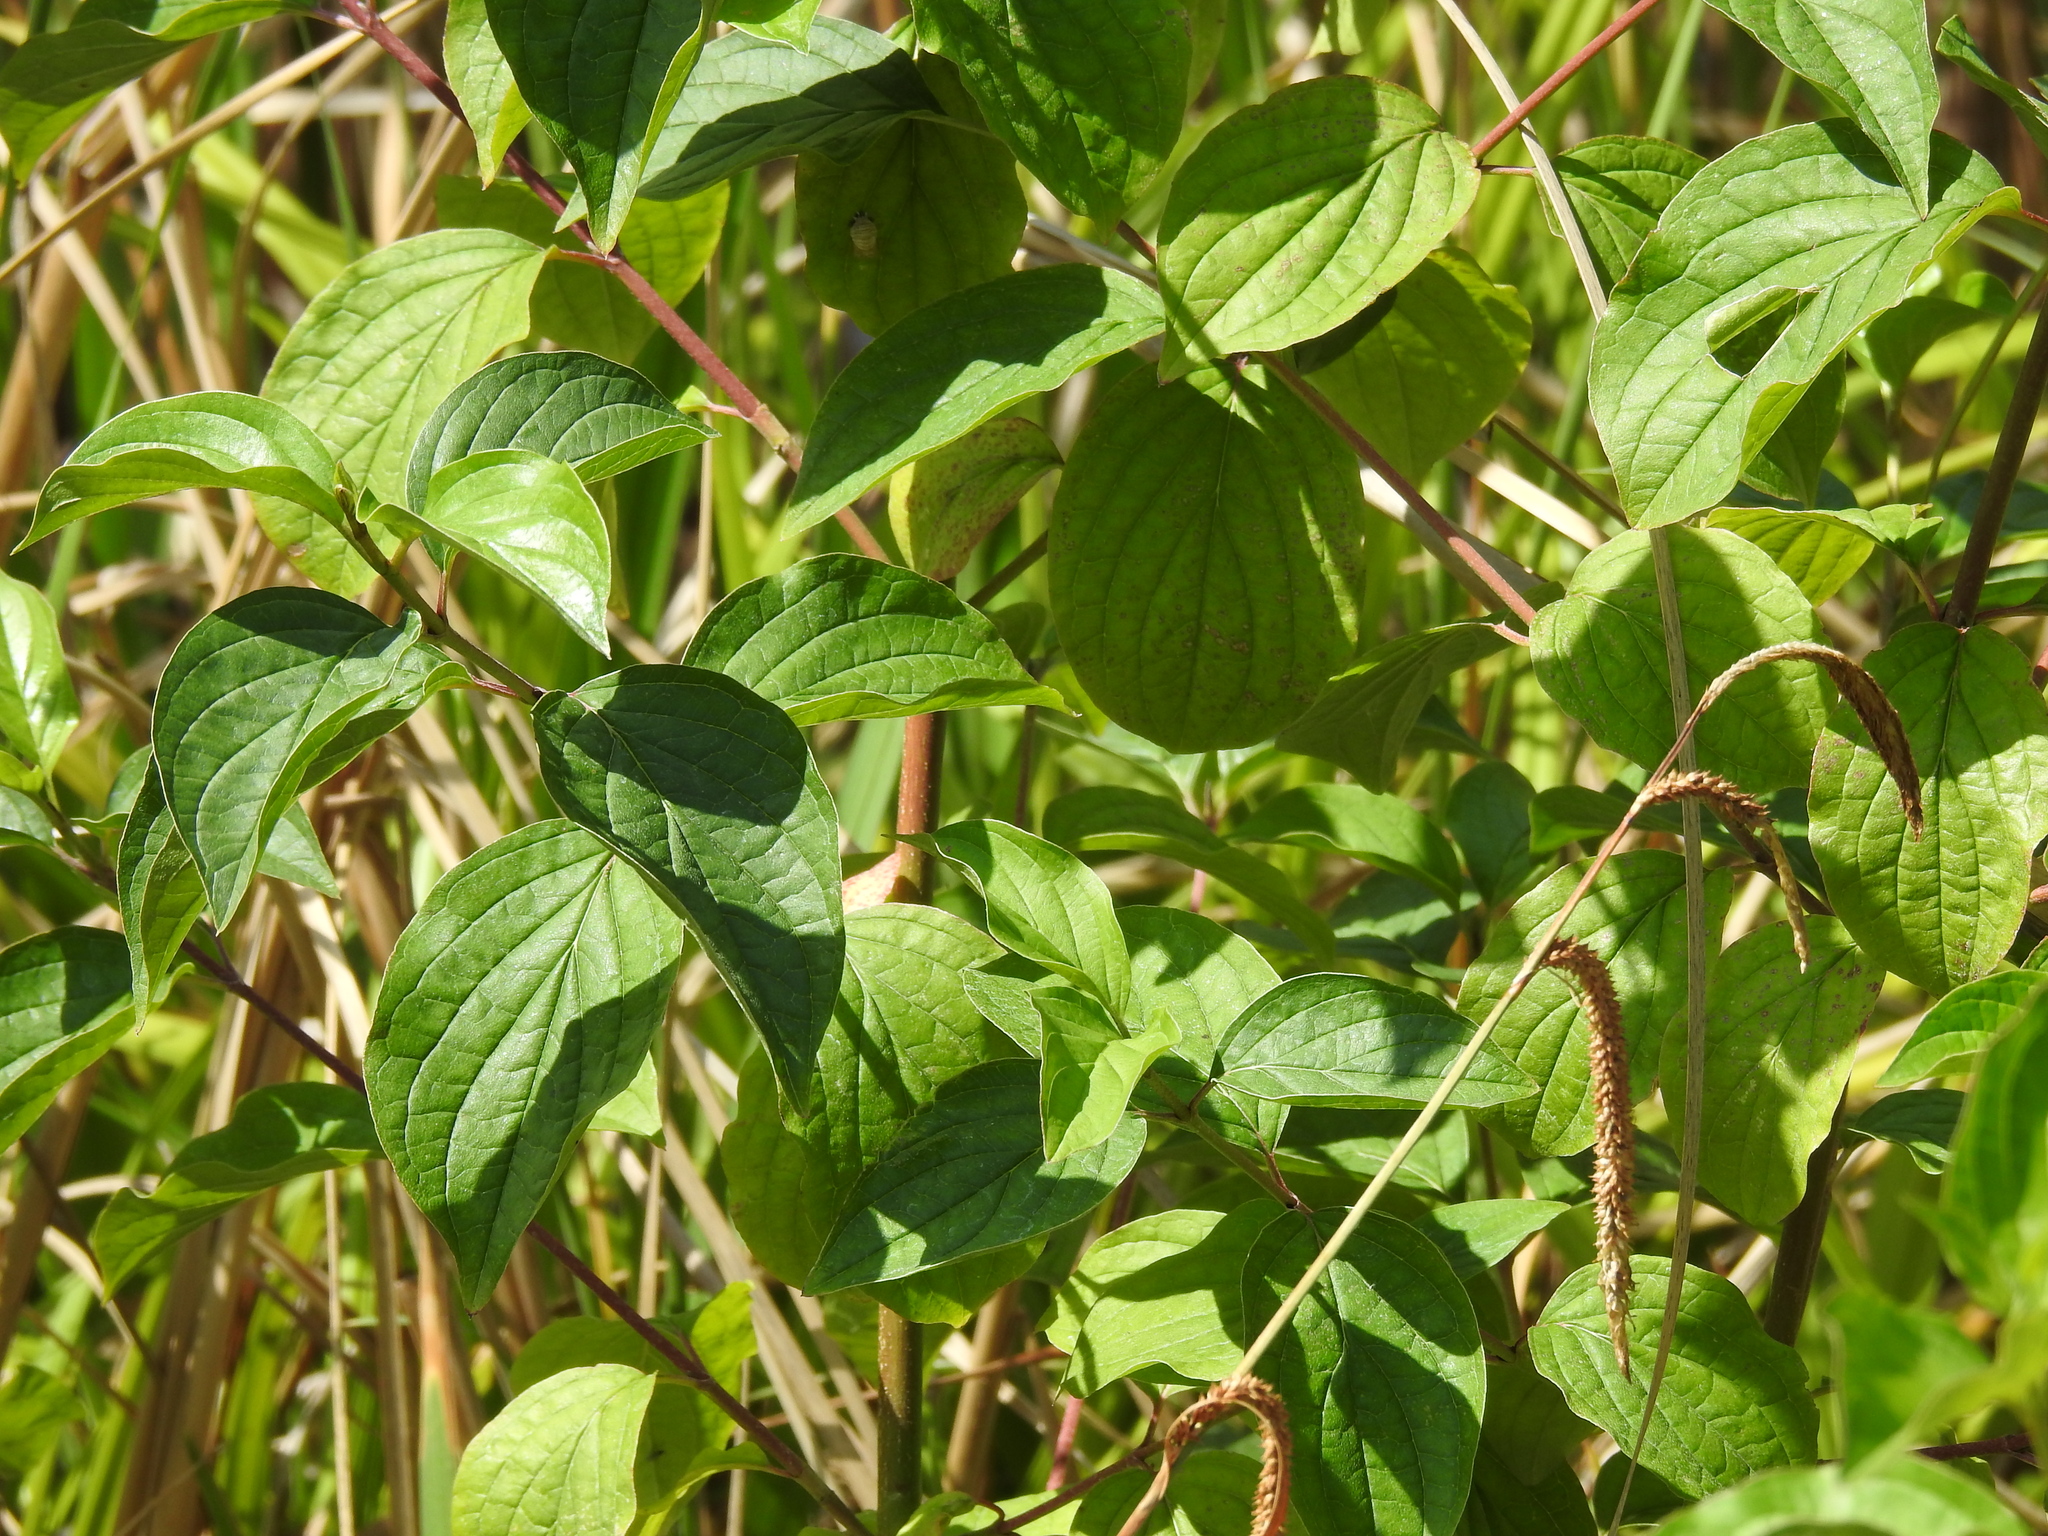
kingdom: Plantae
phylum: Tracheophyta
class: Magnoliopsida
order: Cornales
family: Cornaceae
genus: Cornus
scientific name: Cornus sanguinea
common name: Dogwood
